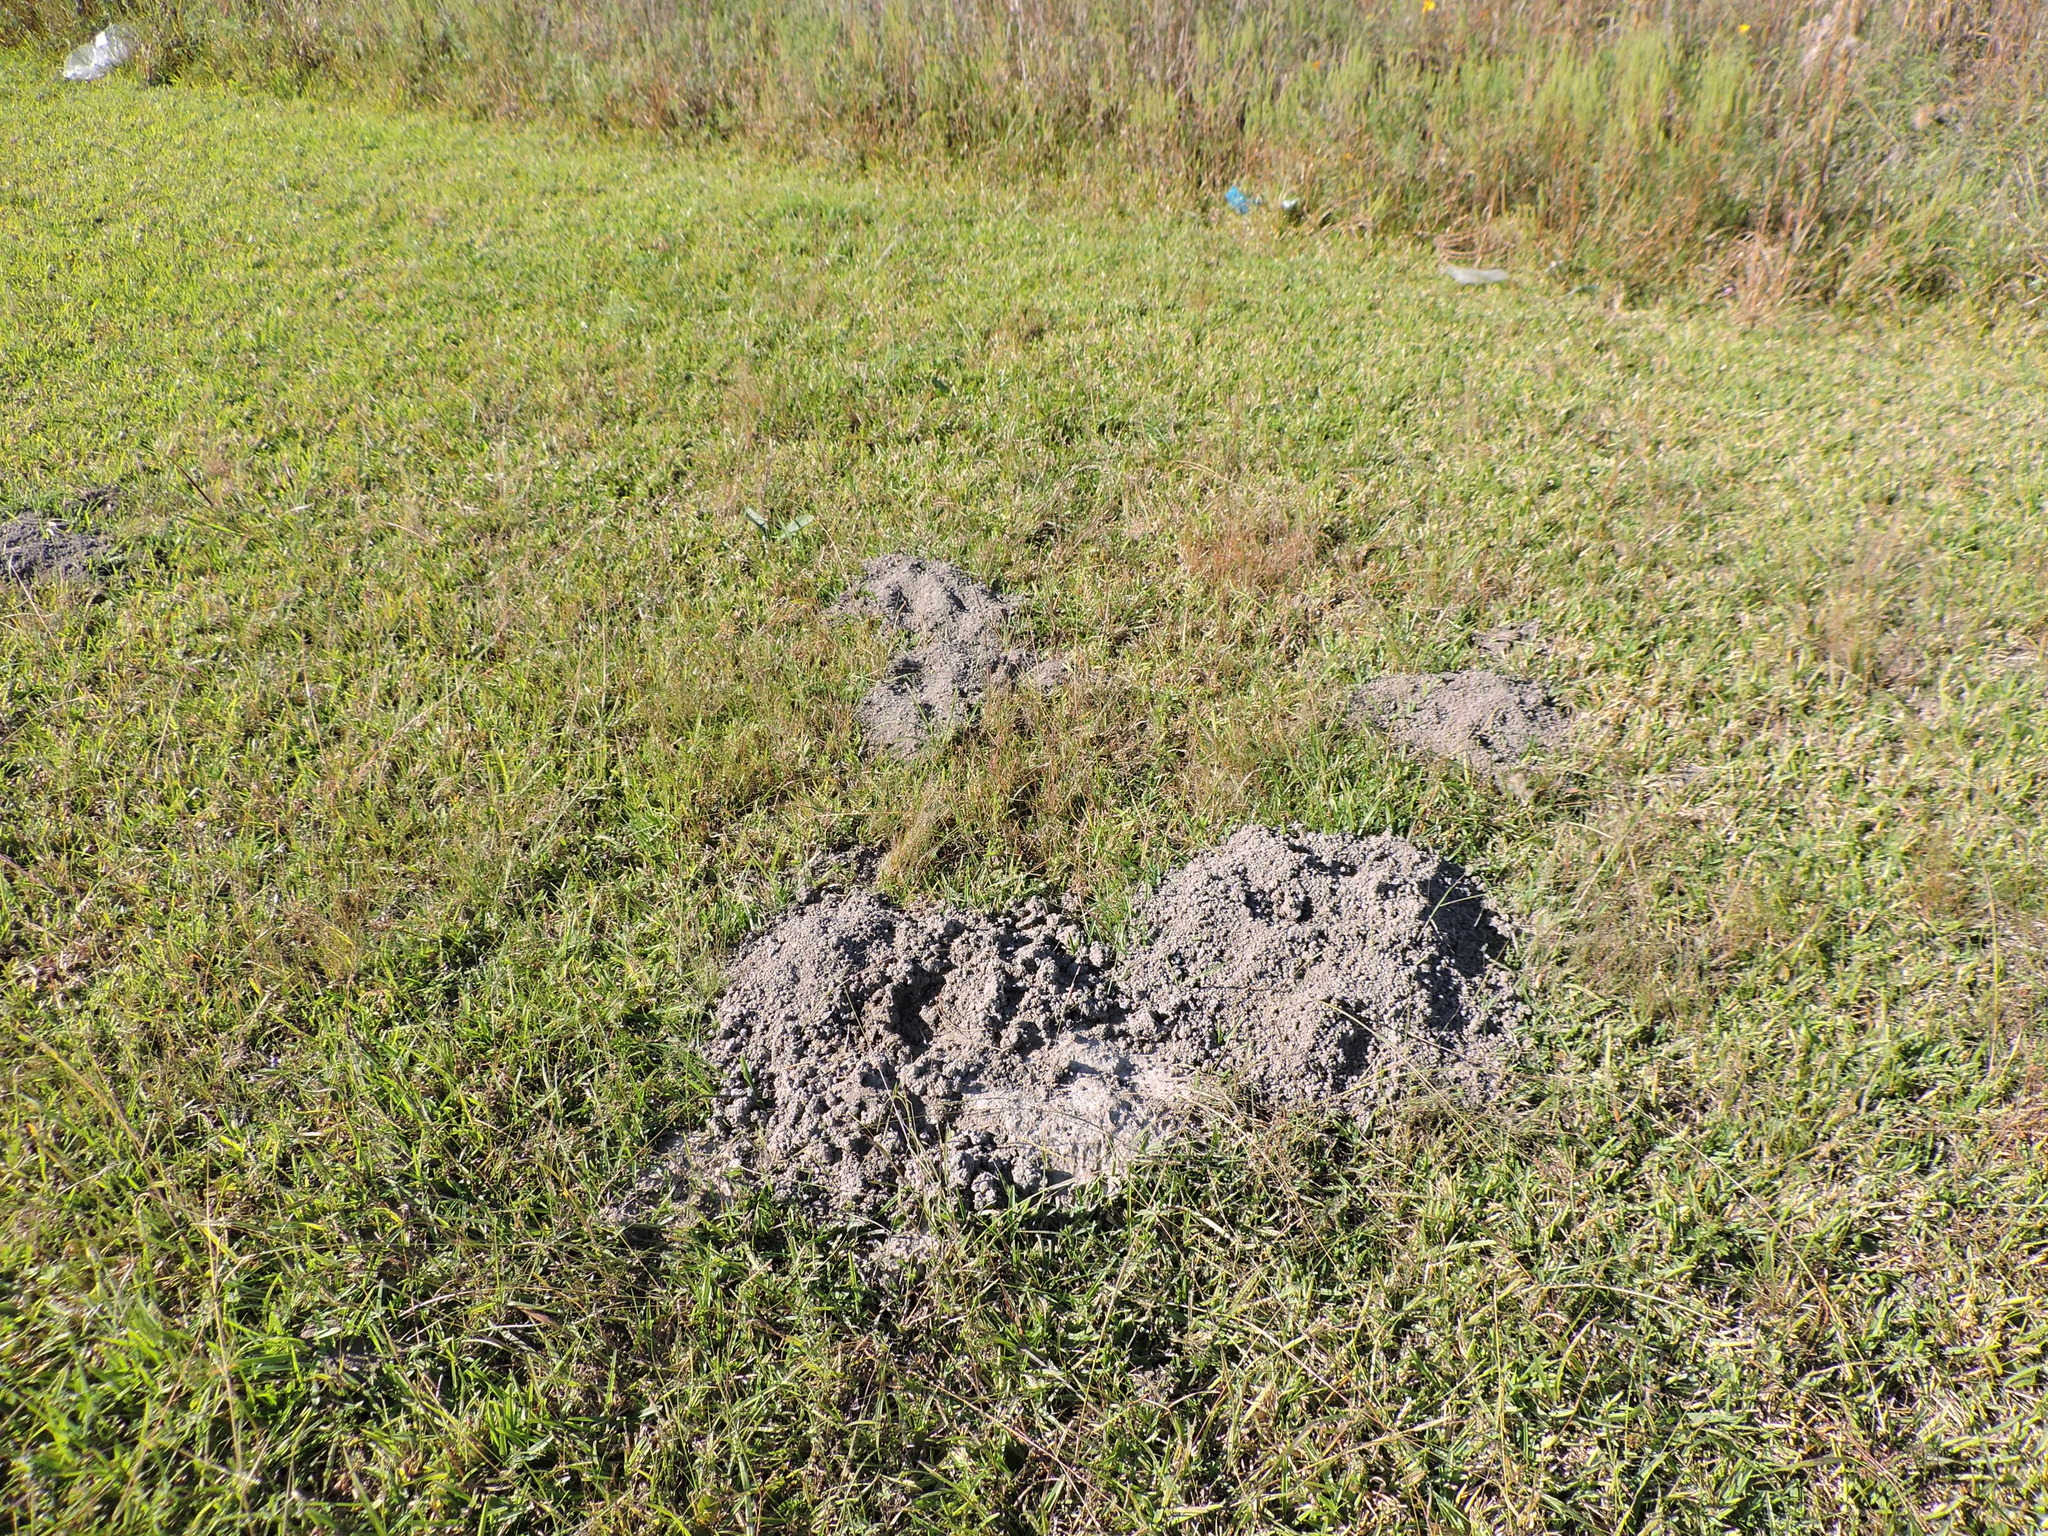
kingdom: Animalia
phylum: Chordata
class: Mammalia
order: Rodentia
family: Geomyidae
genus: Geomys
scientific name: Geomys breviceps
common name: Baird's pocket gopher
